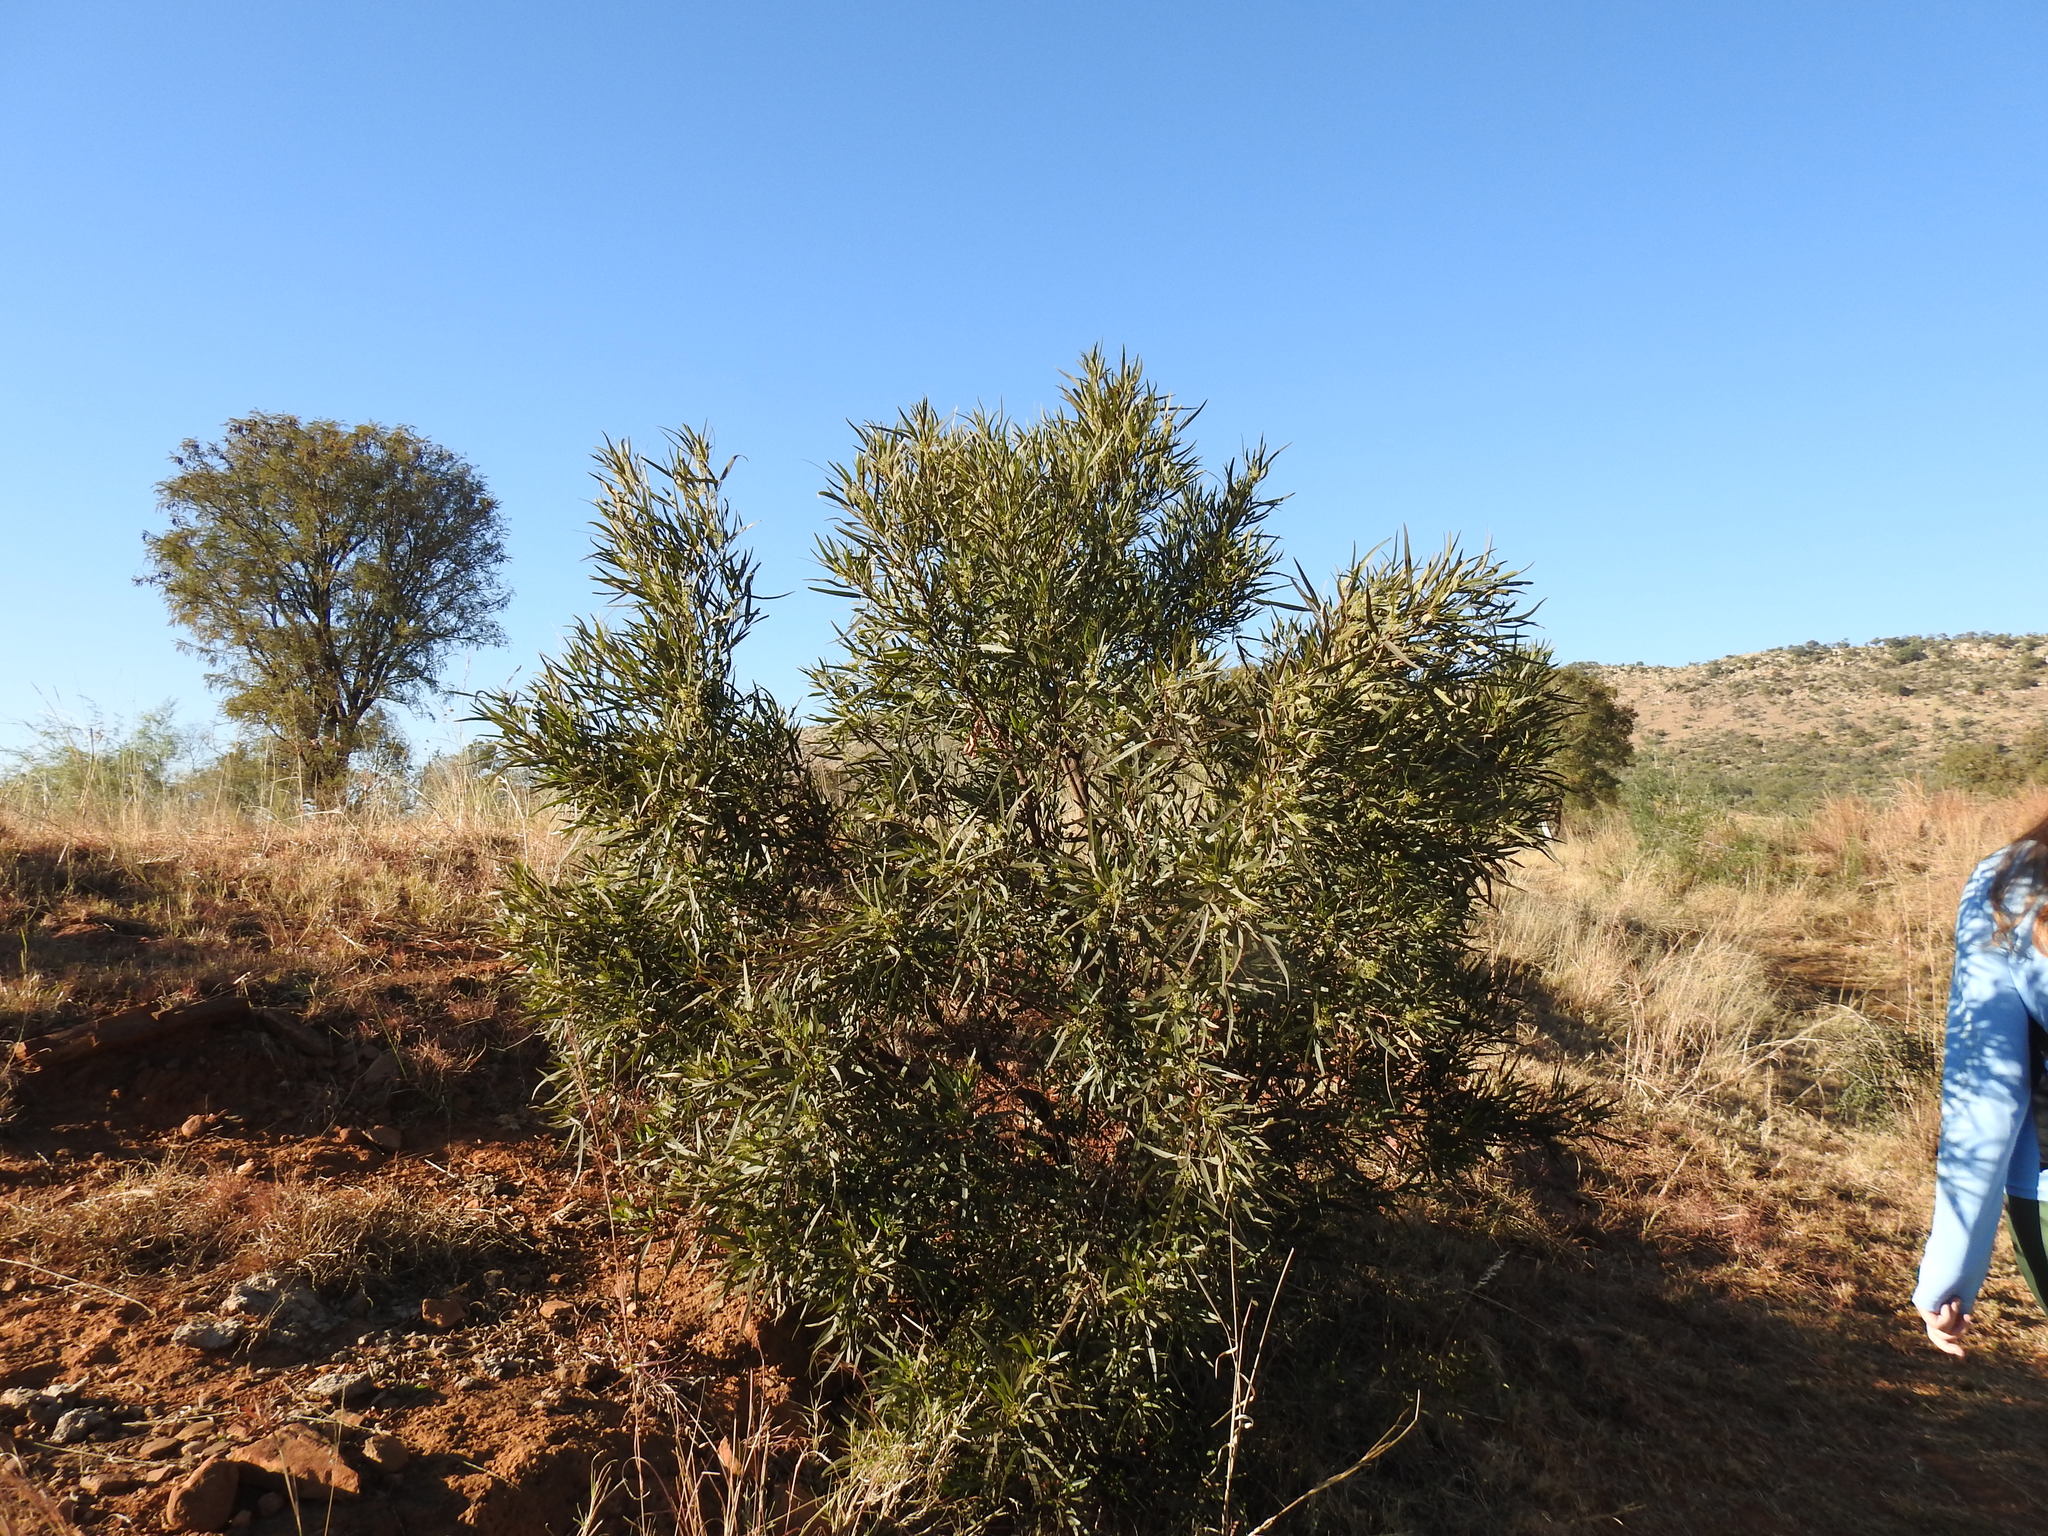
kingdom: Plantae
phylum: Tracheophyta
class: Magnoliopsida
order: Sapindales
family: Anacardiaceae
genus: Searsia
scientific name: Searsia lancea
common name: Cashew
